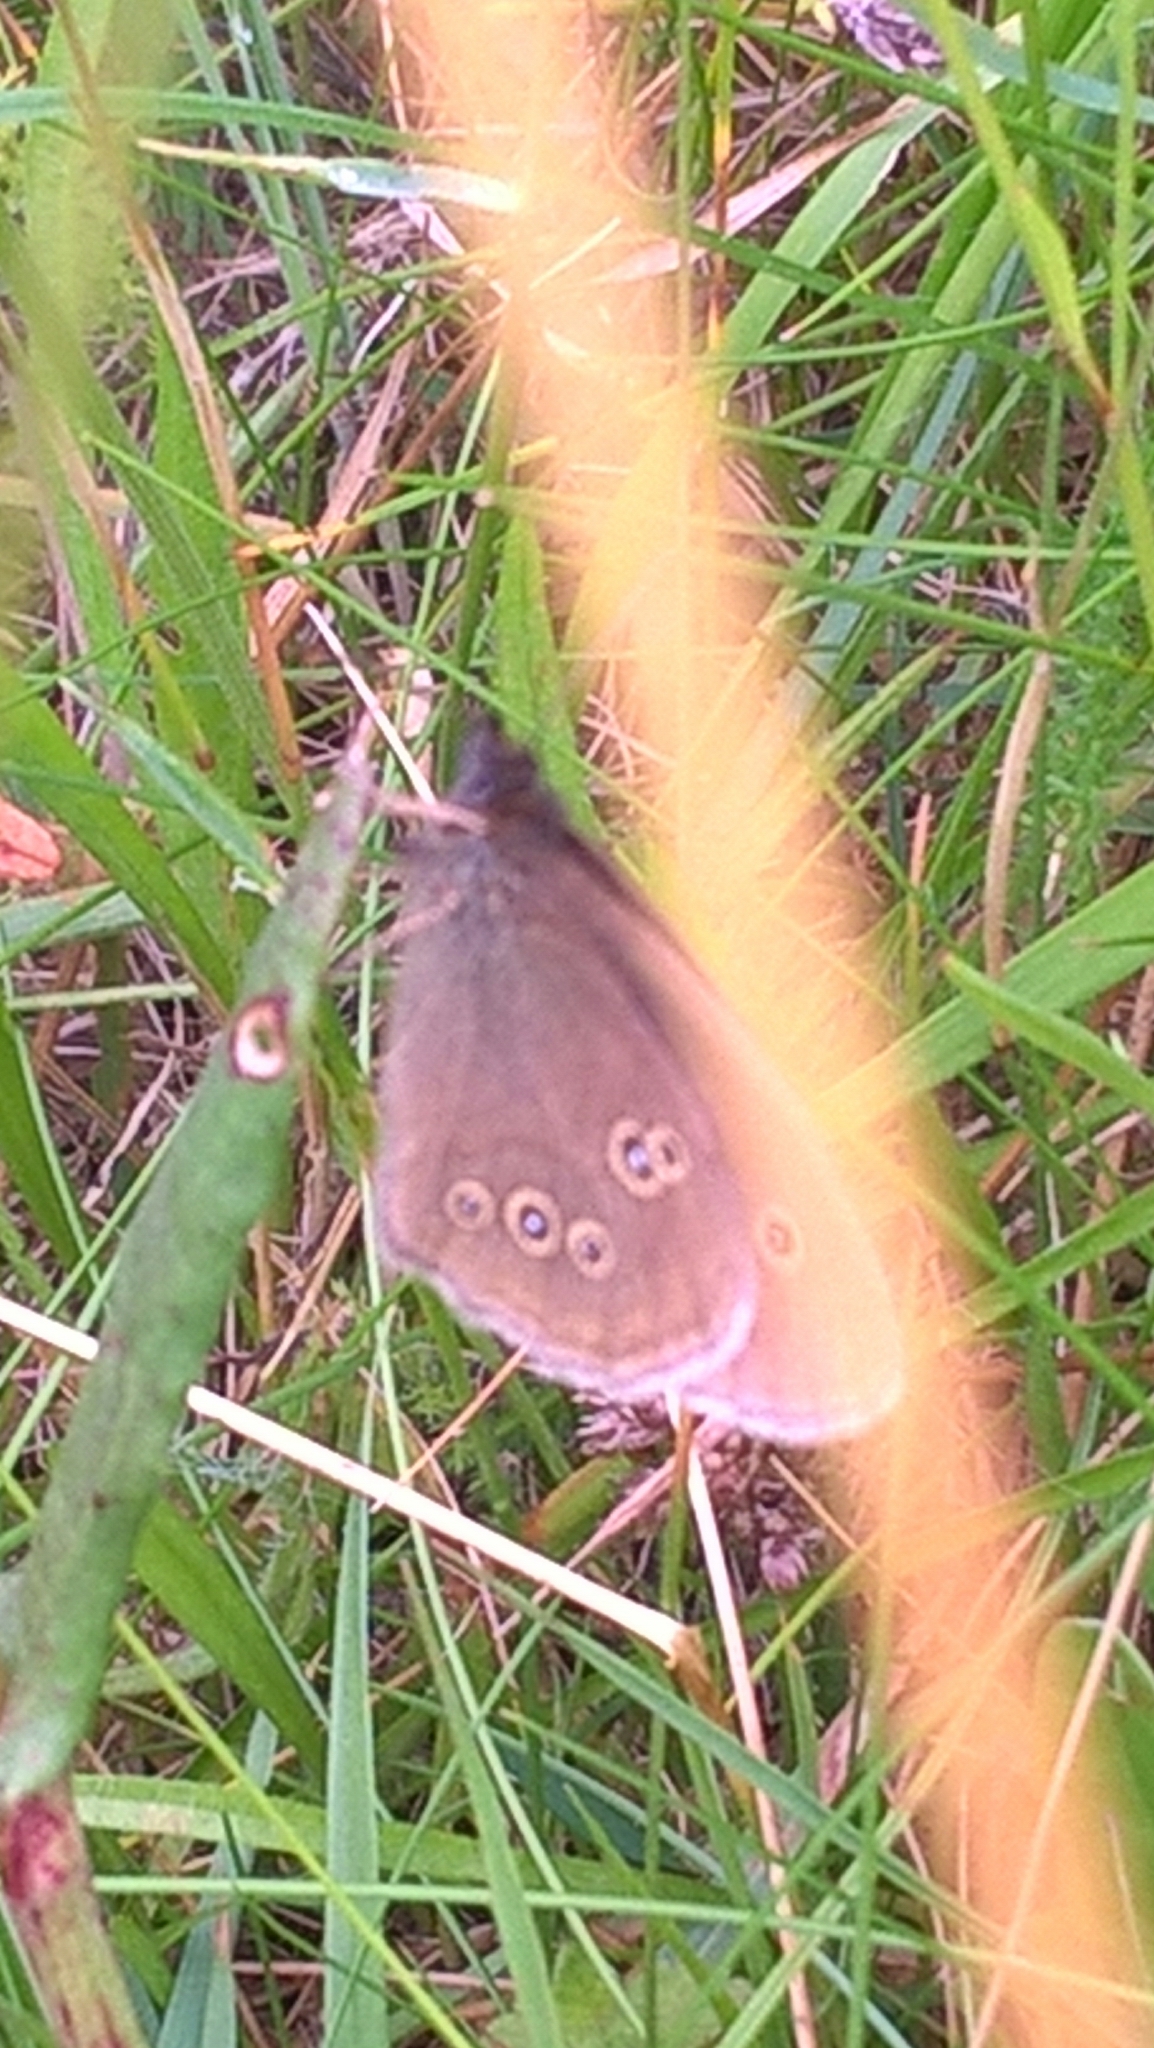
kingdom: Animalia
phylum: Arthropoda
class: Insecta
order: Lepidoptera
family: Nymphalidae
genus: Aphantopus
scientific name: Aphantopus hyperantus
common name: Ringlet
